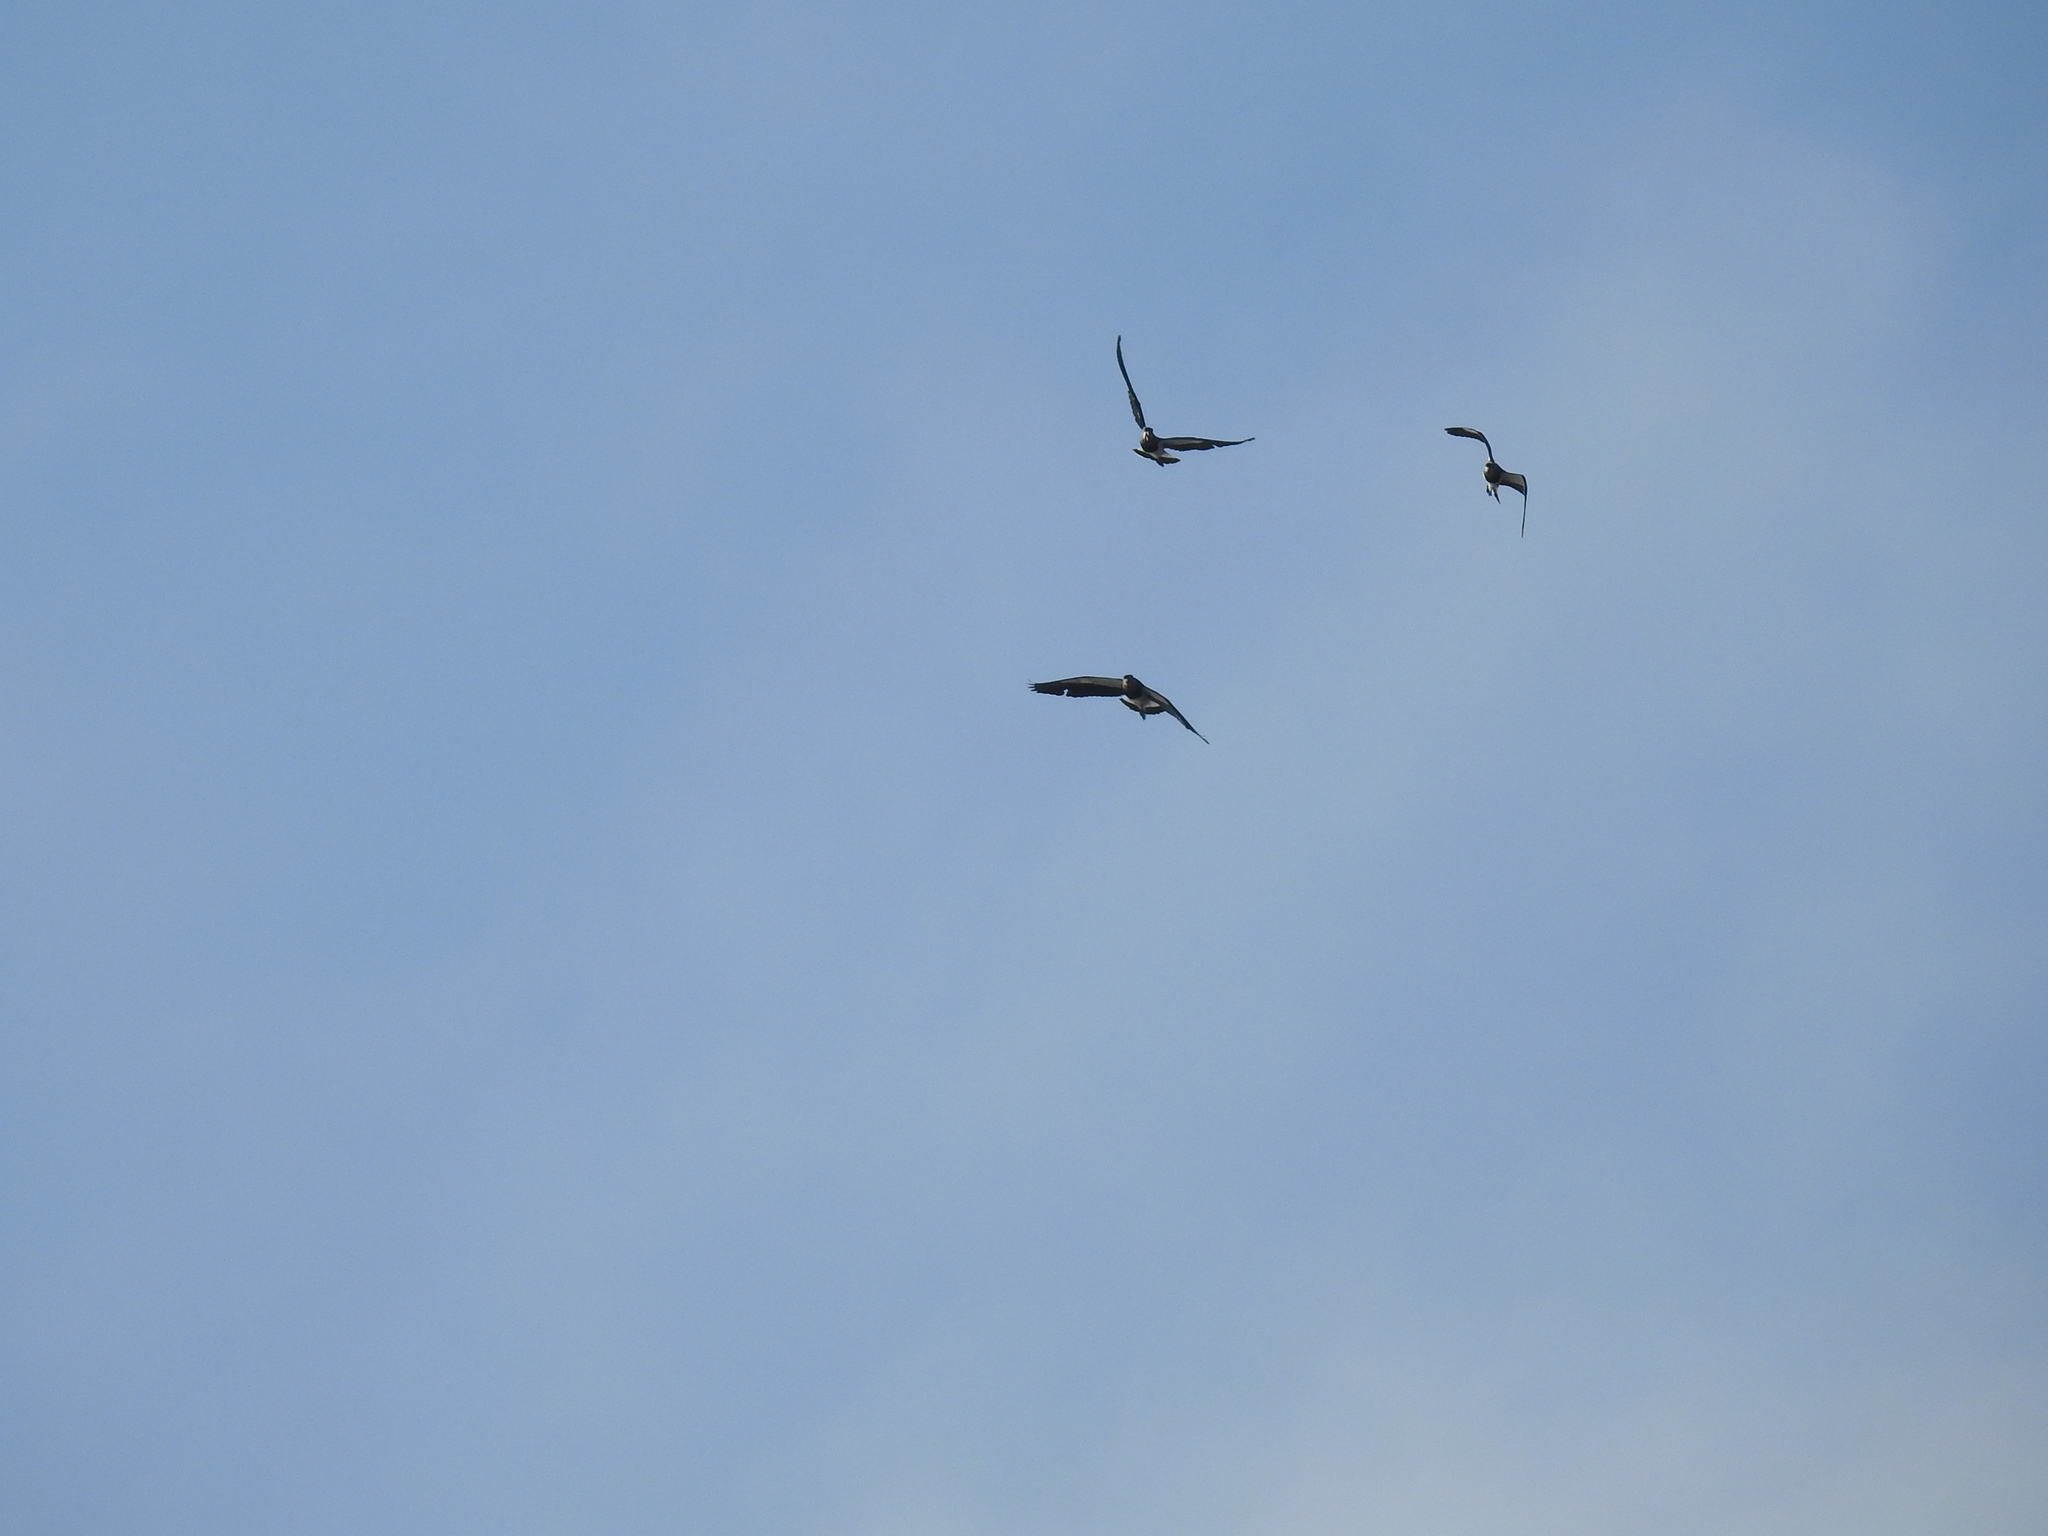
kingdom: Animalia
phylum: Chordata
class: Aves
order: Charadriiformes
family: Charadriidae
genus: Vanellus
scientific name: Vanellus chilensis
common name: Southern lapwing
